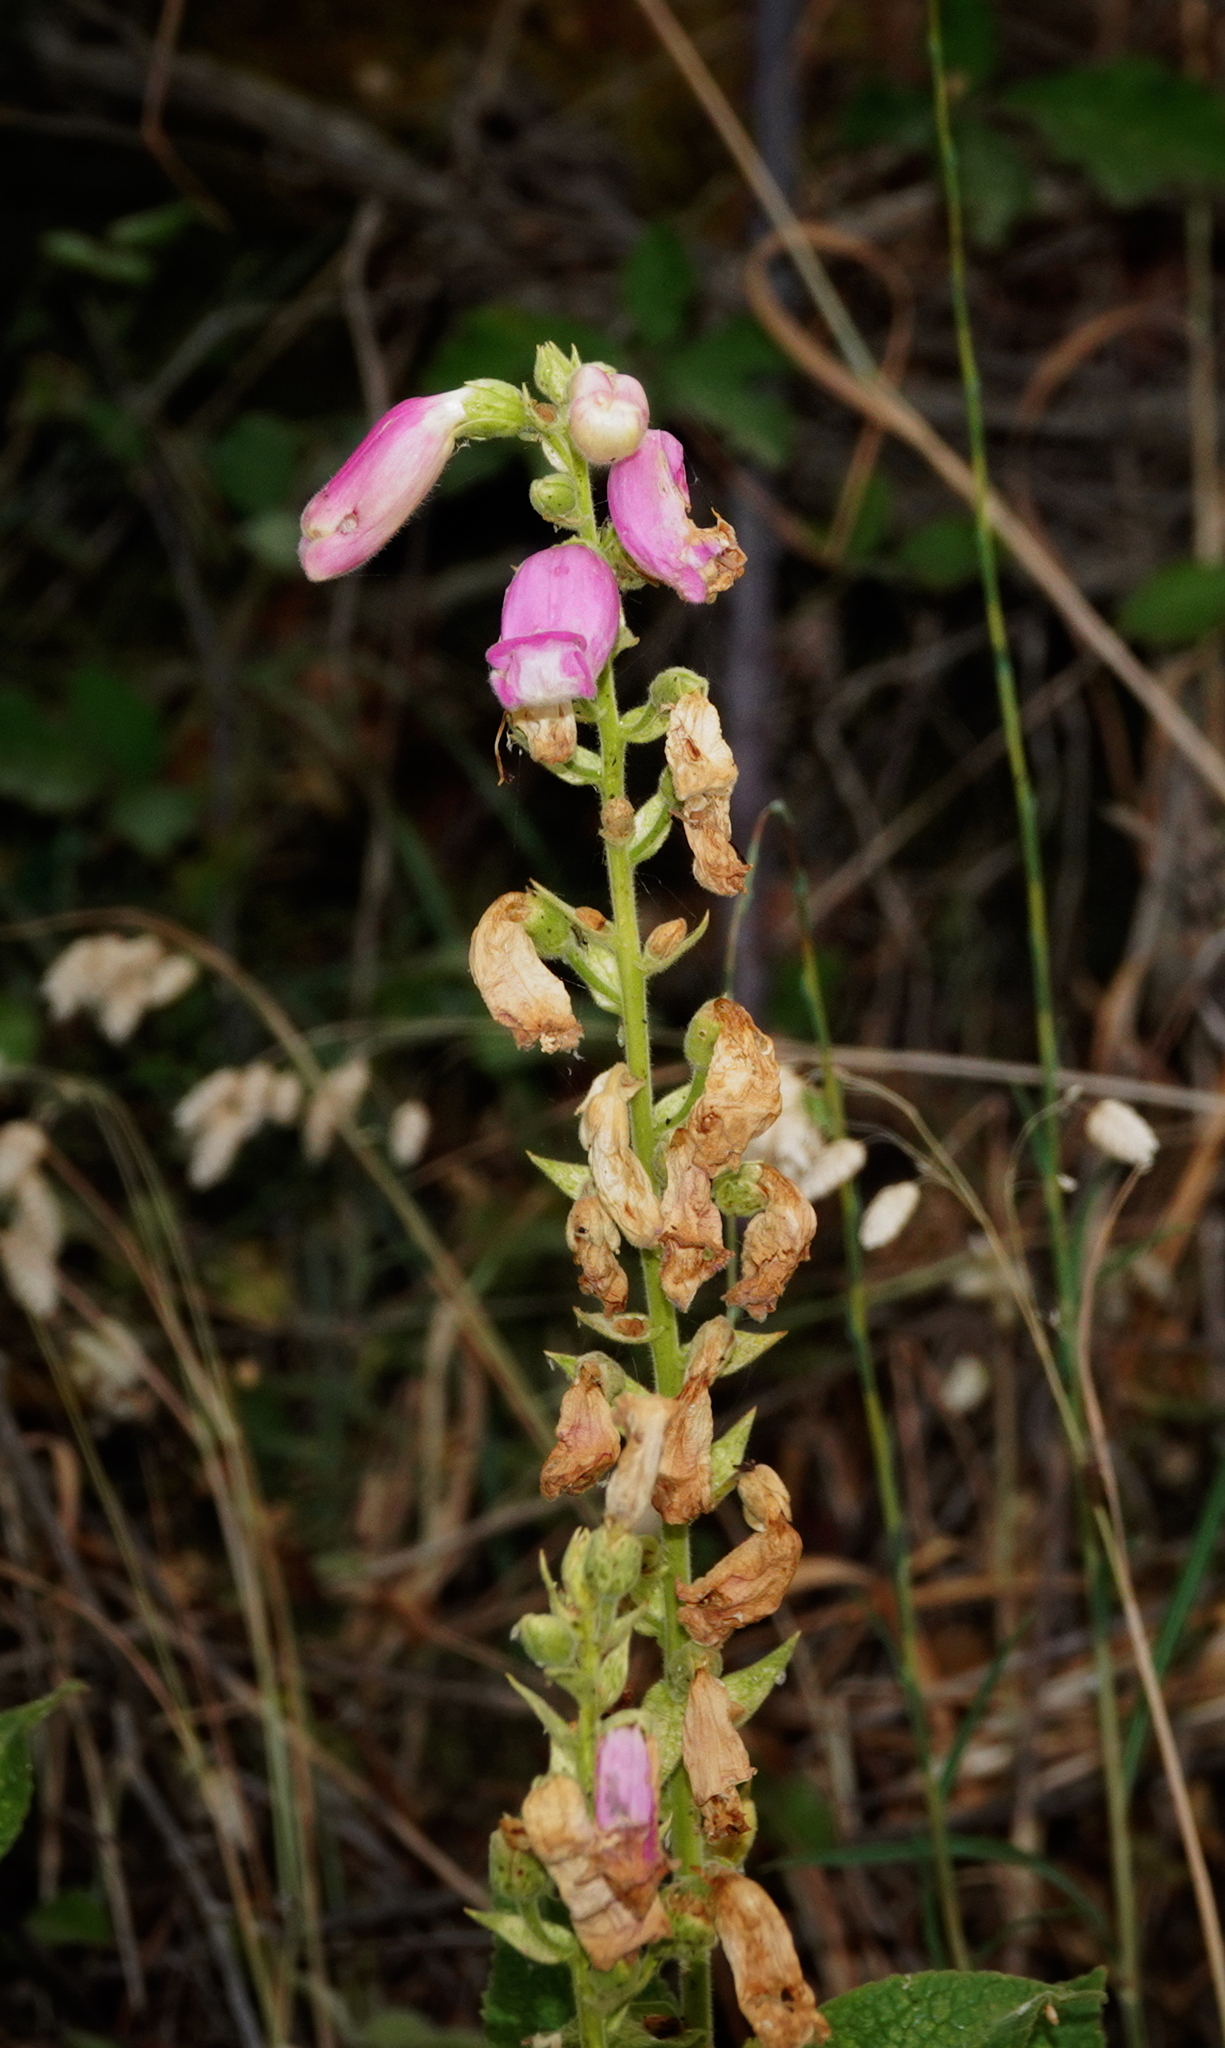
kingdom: Plantae
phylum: Tracheophyta
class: Magnoliopsida
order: Lamiales
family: Plantaginaceae
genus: Digitalis
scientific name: Digitalis thapsi
